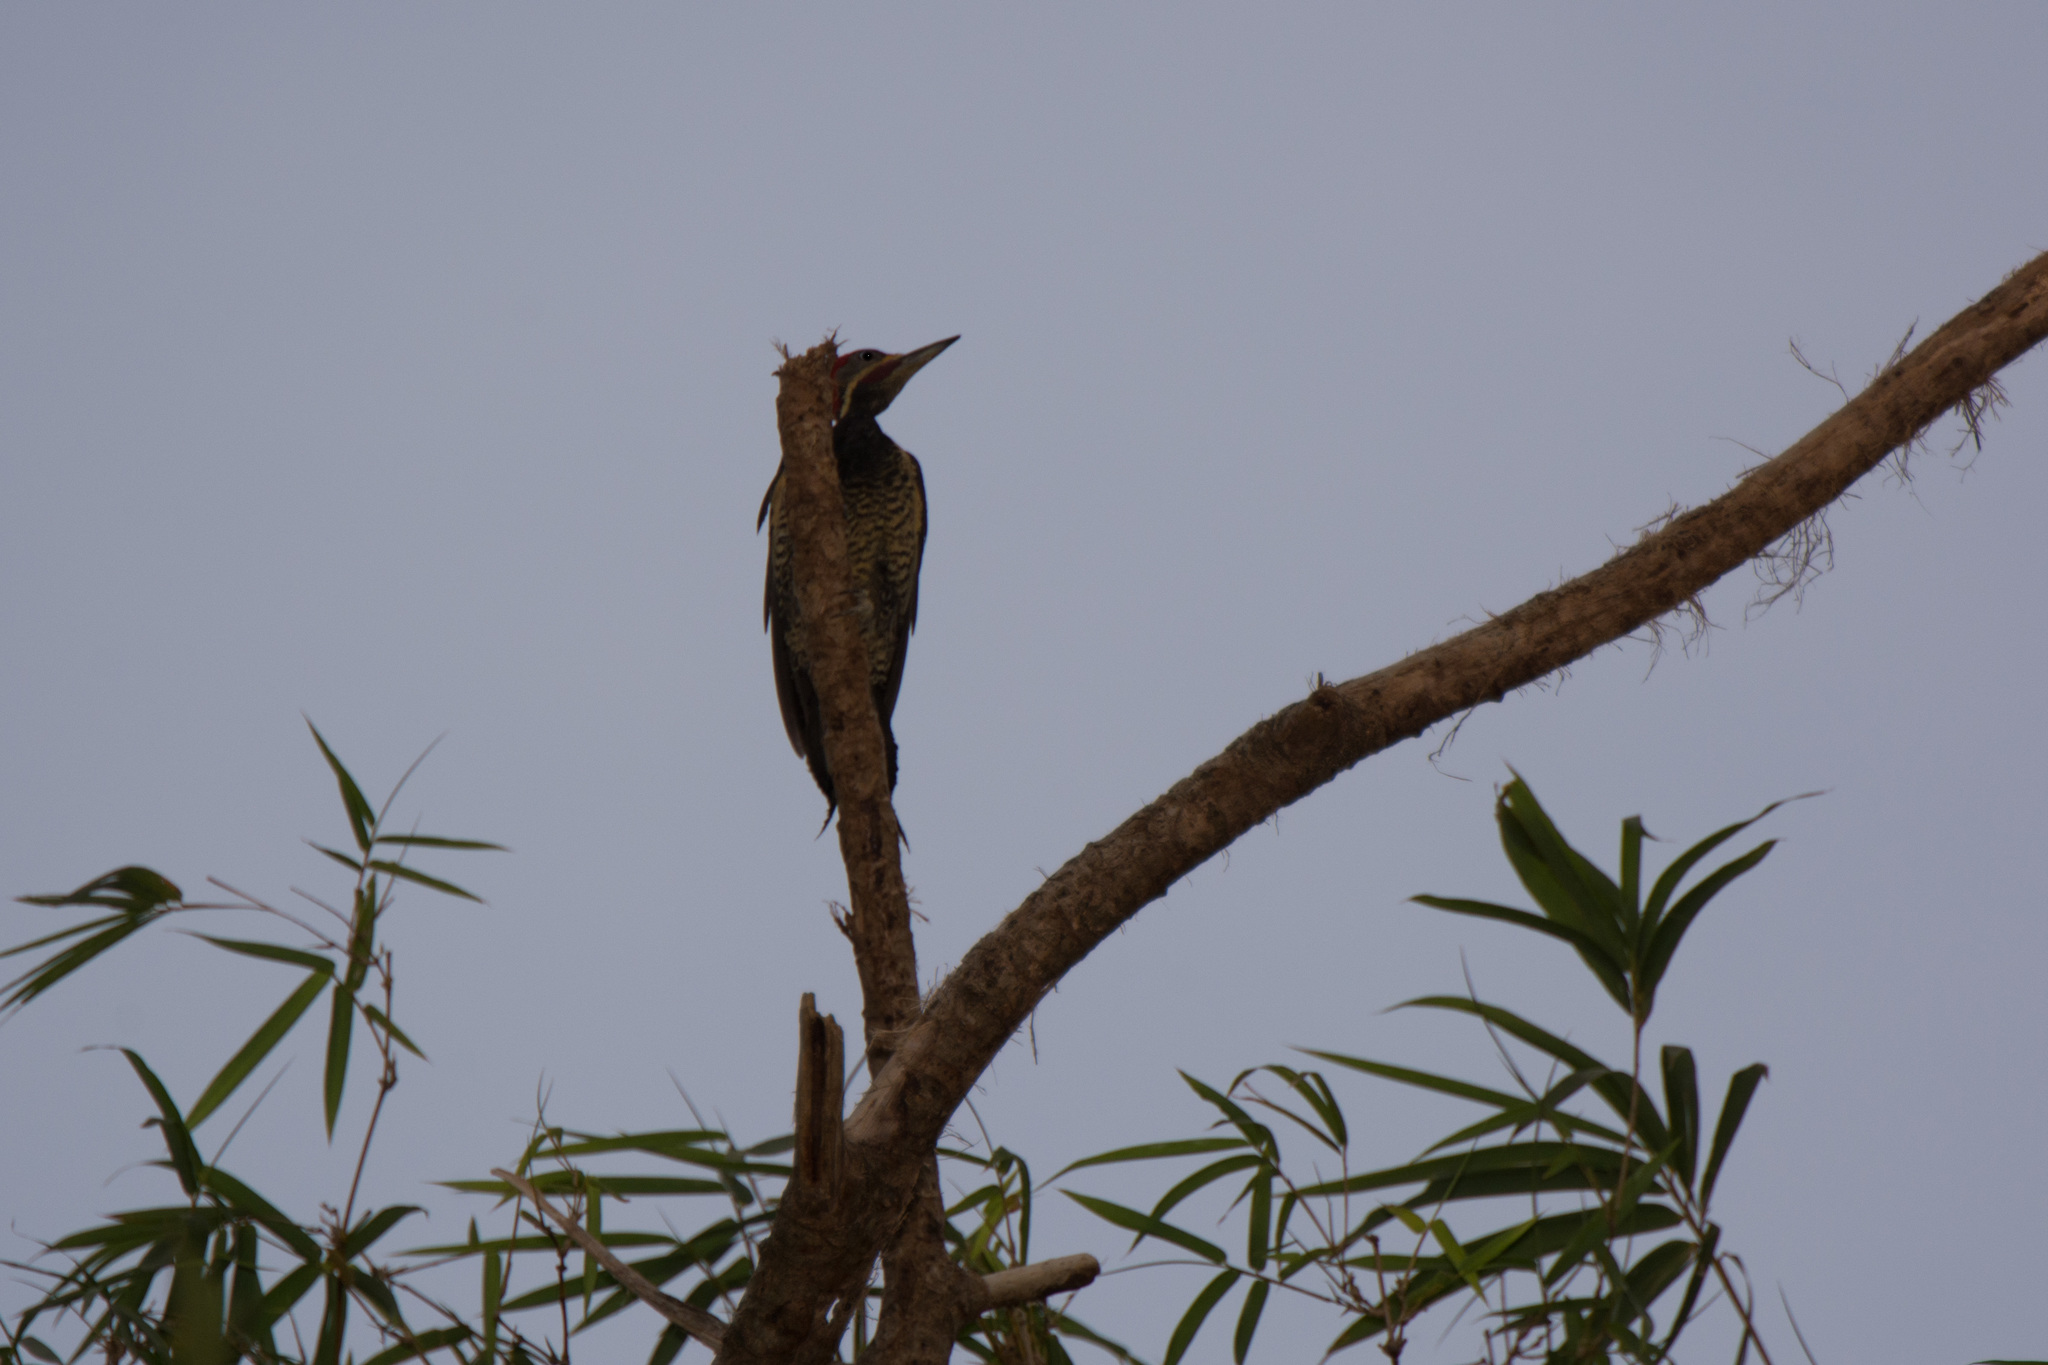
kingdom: Animalia
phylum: Chordata
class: Aves
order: Piciformes
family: Picidae
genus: Dryocopus
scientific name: Dryocopus lineatus
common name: Lineated woodpecker
